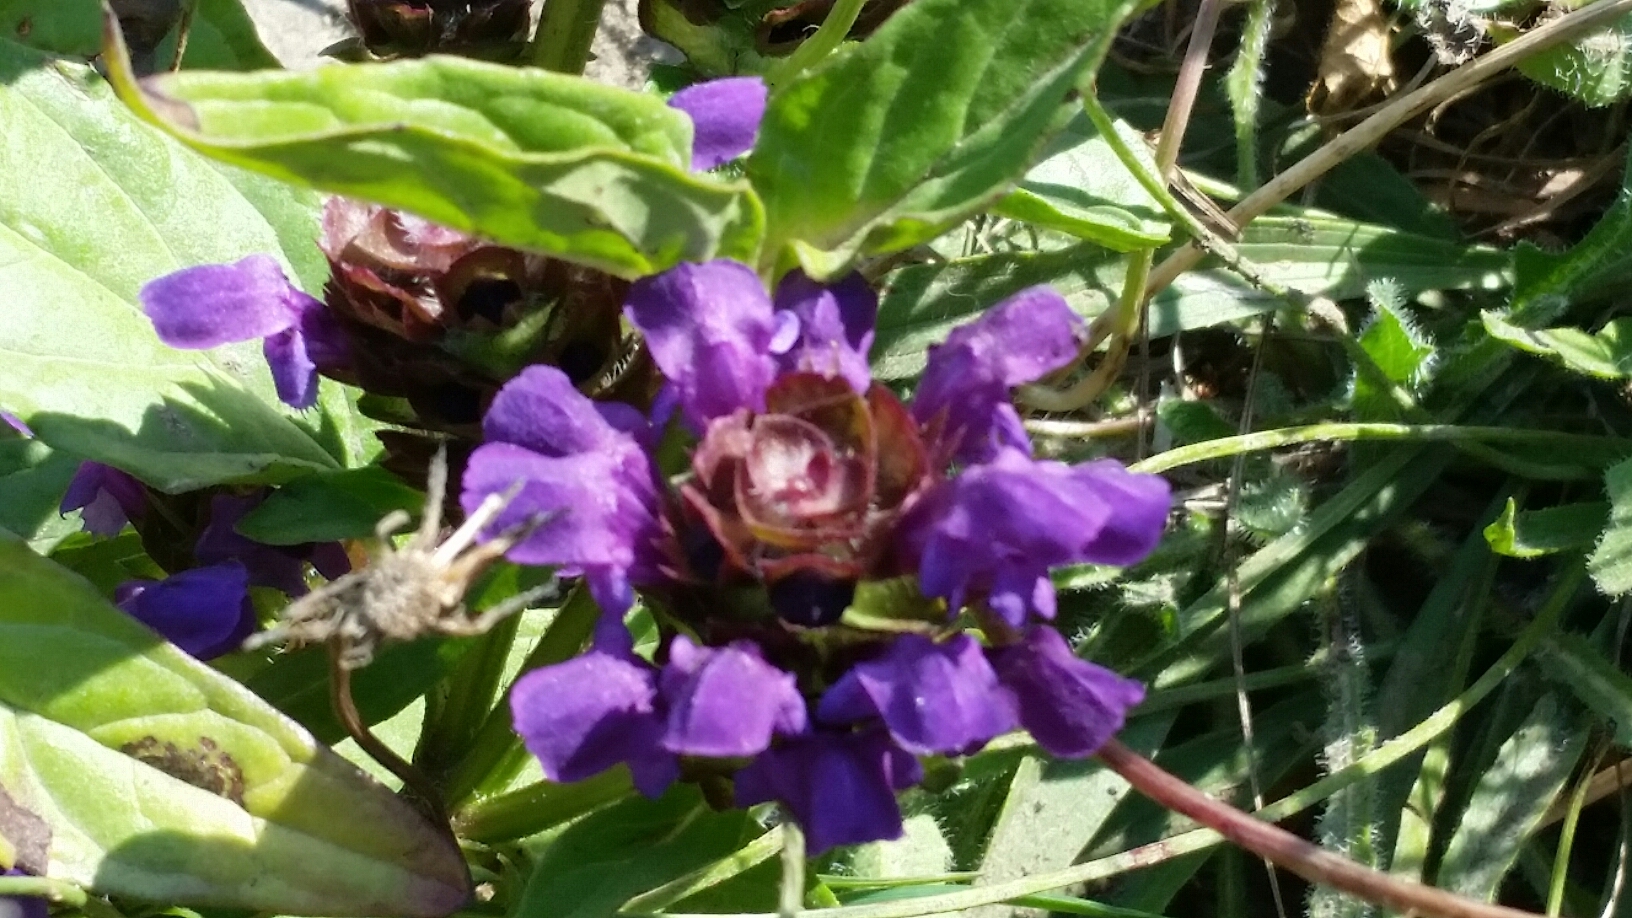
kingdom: Plantae
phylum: Tracheophyta
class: Magnoliopsida
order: Lamiales
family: Lamiaceae
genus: Prunella
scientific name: Prunella vulgaris
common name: Heal-all
